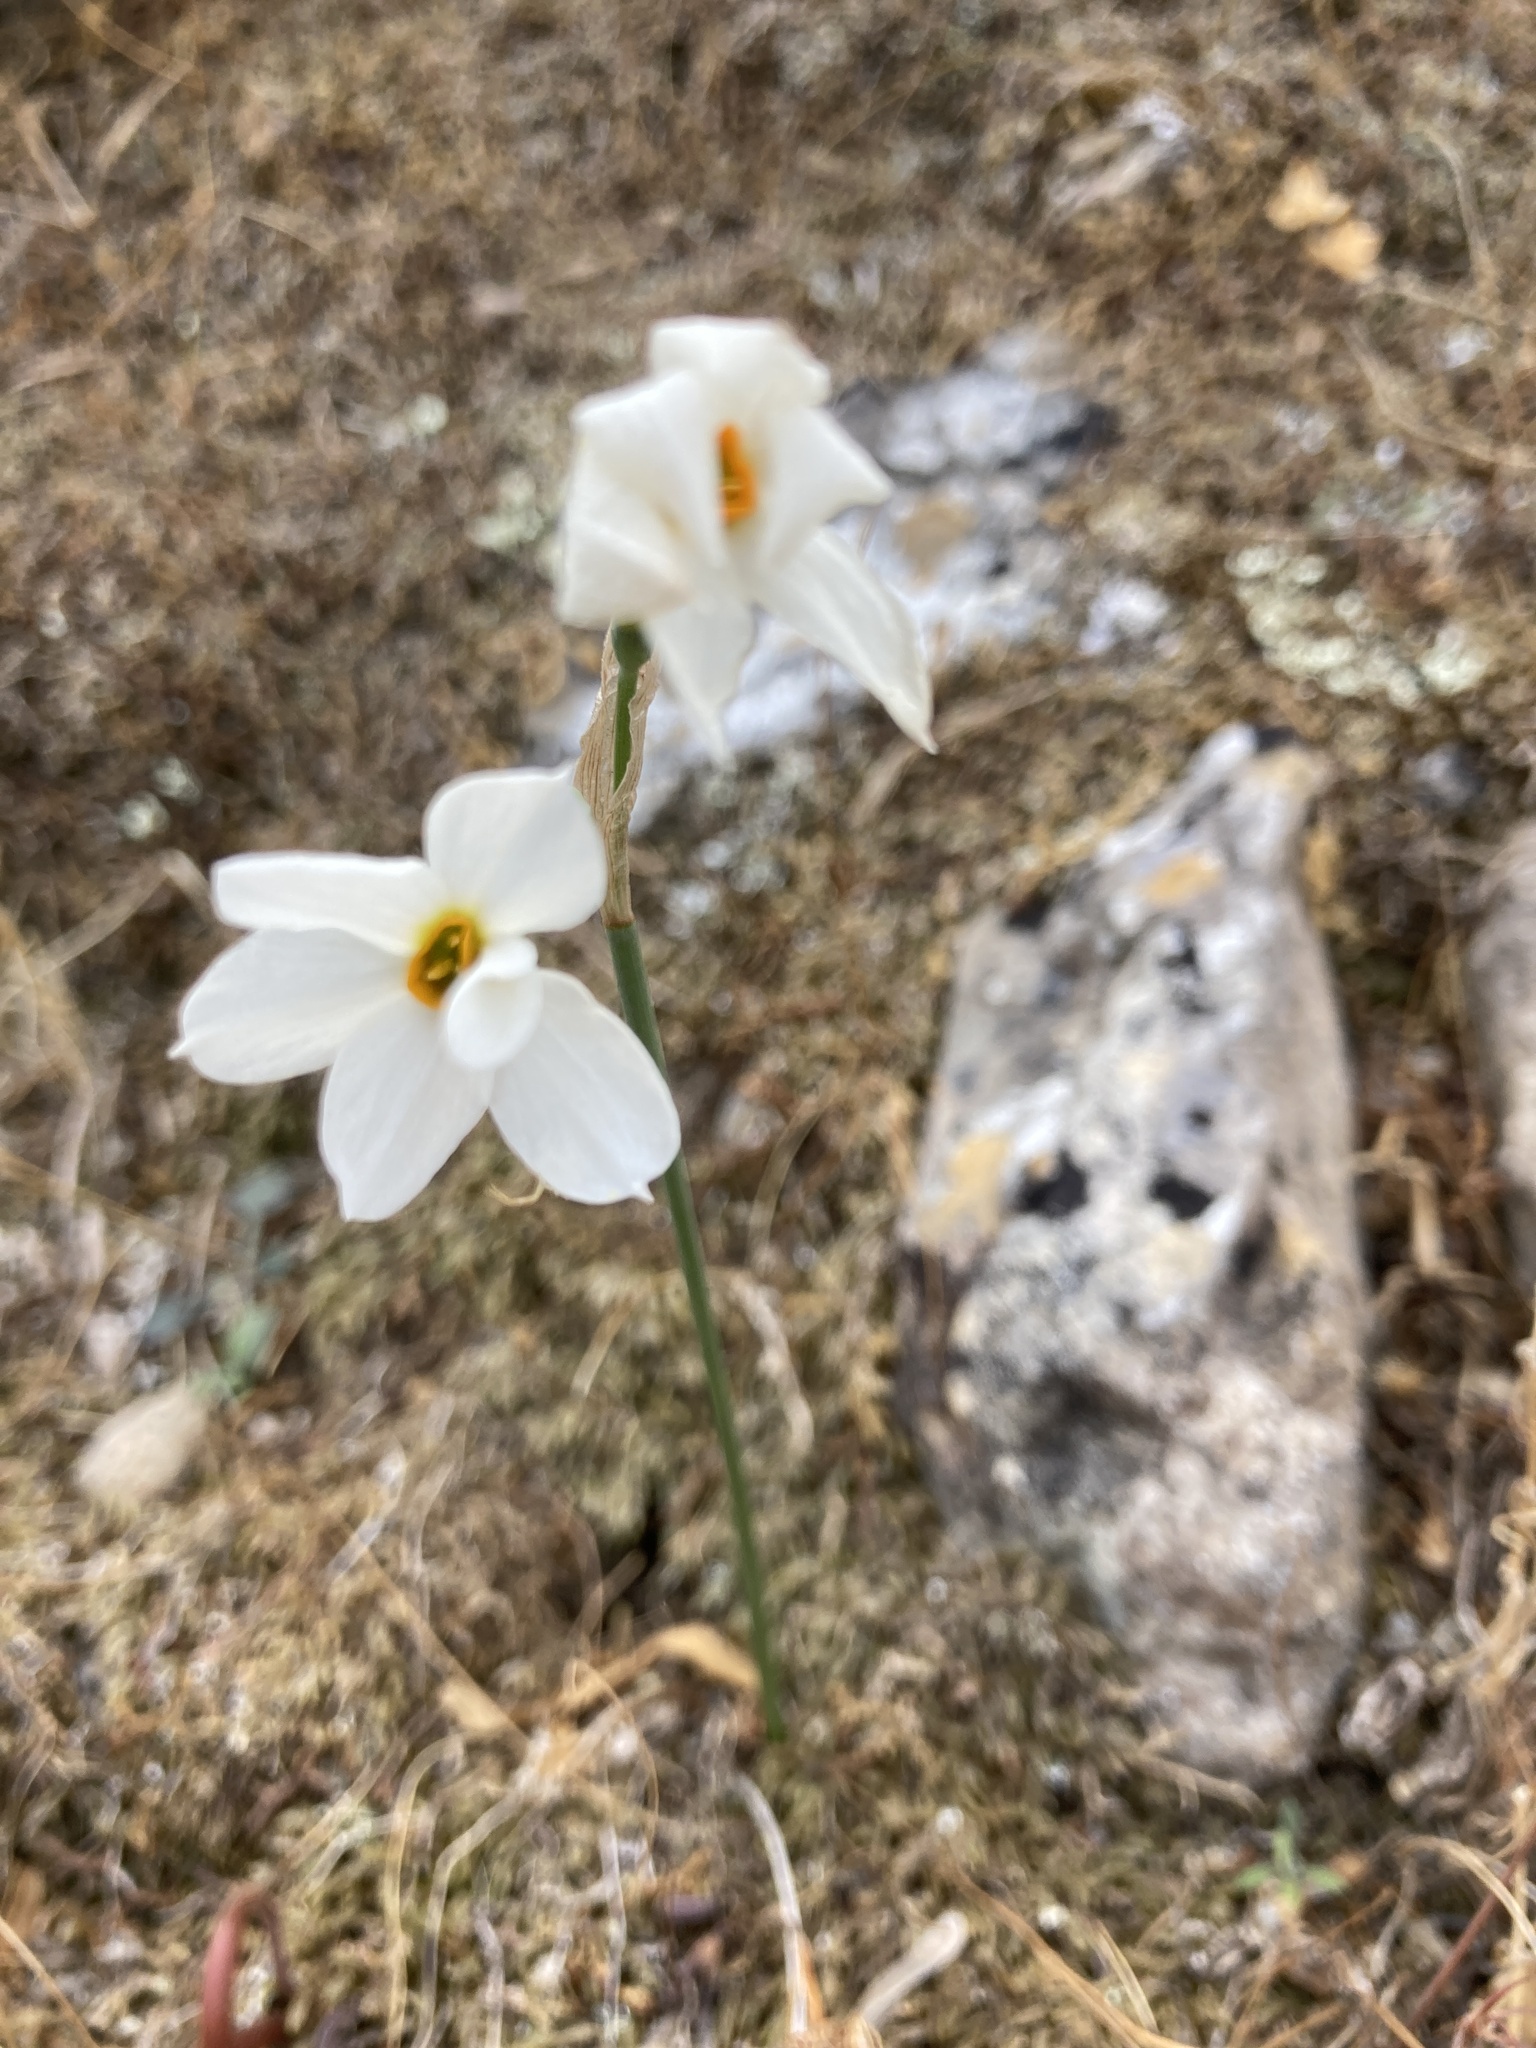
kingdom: Plantae
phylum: Tracheophyta
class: Liliopsida
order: Asparagales
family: Amaryllidaceae
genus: Narcissus
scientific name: Narcissus deficiens
